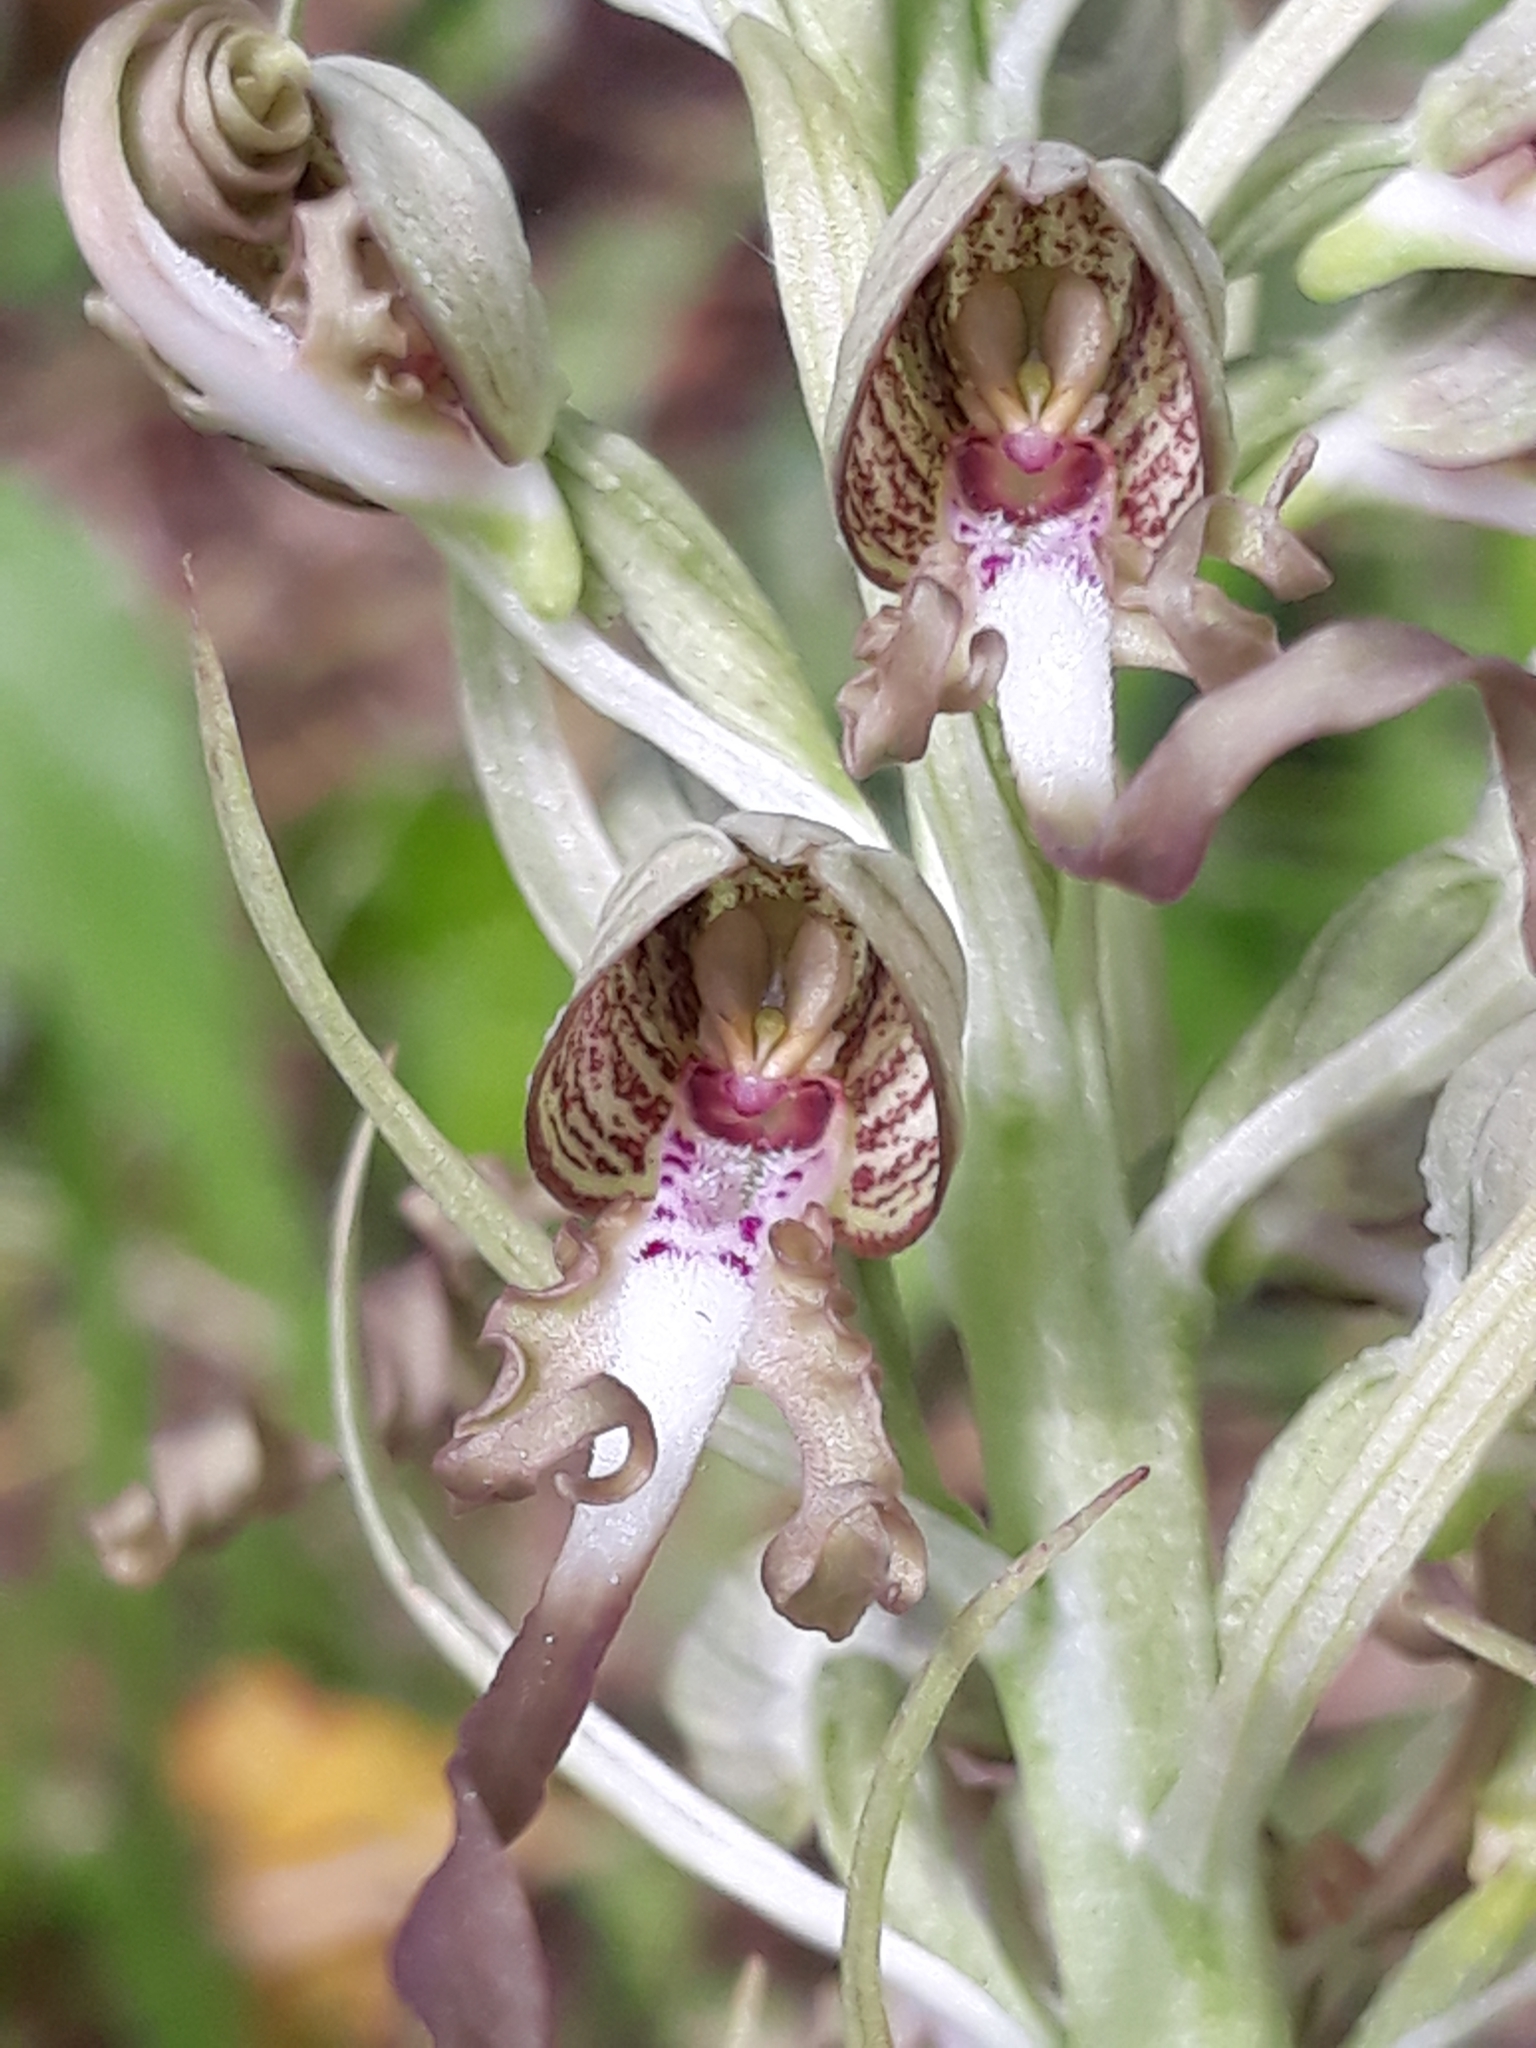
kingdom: Plantae
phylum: Tracheophyta
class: Liliopsida
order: Asparagales
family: Orchidaceae
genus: Himantoglossum
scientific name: Himantoglossum hircinum
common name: Lizard orchid
